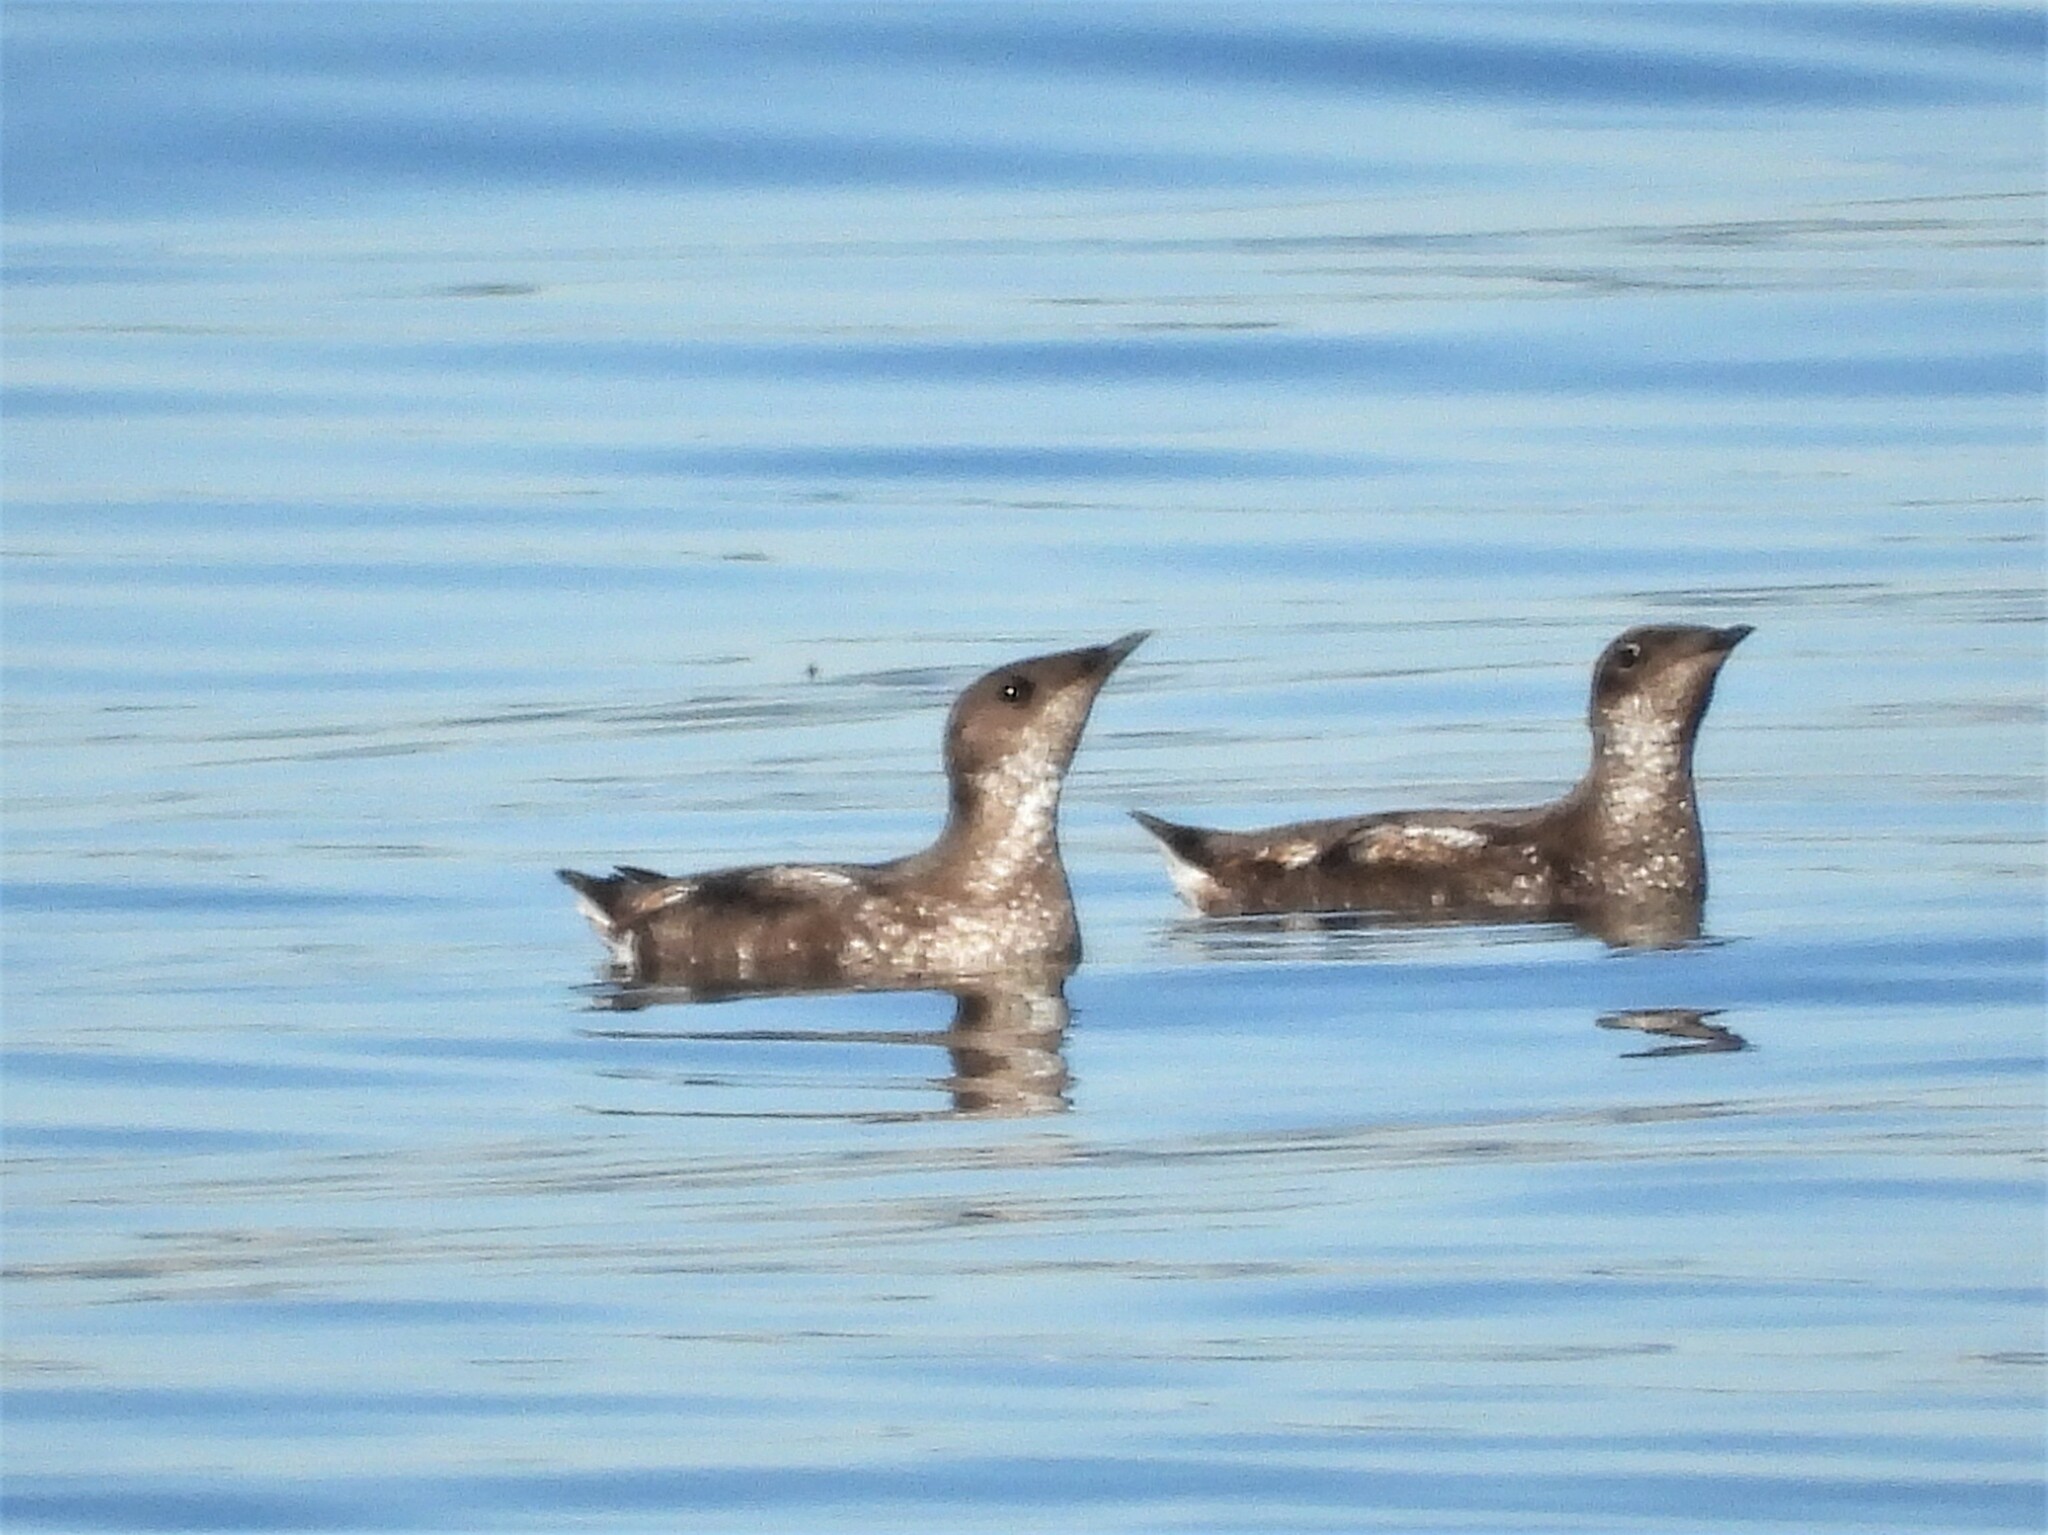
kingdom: Animalia
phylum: Chordata
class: Aves
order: Charadriiformes
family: Alcidae
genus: Brachyramphus
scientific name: Brachyramphus marmoratus
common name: Marbled murrelet
